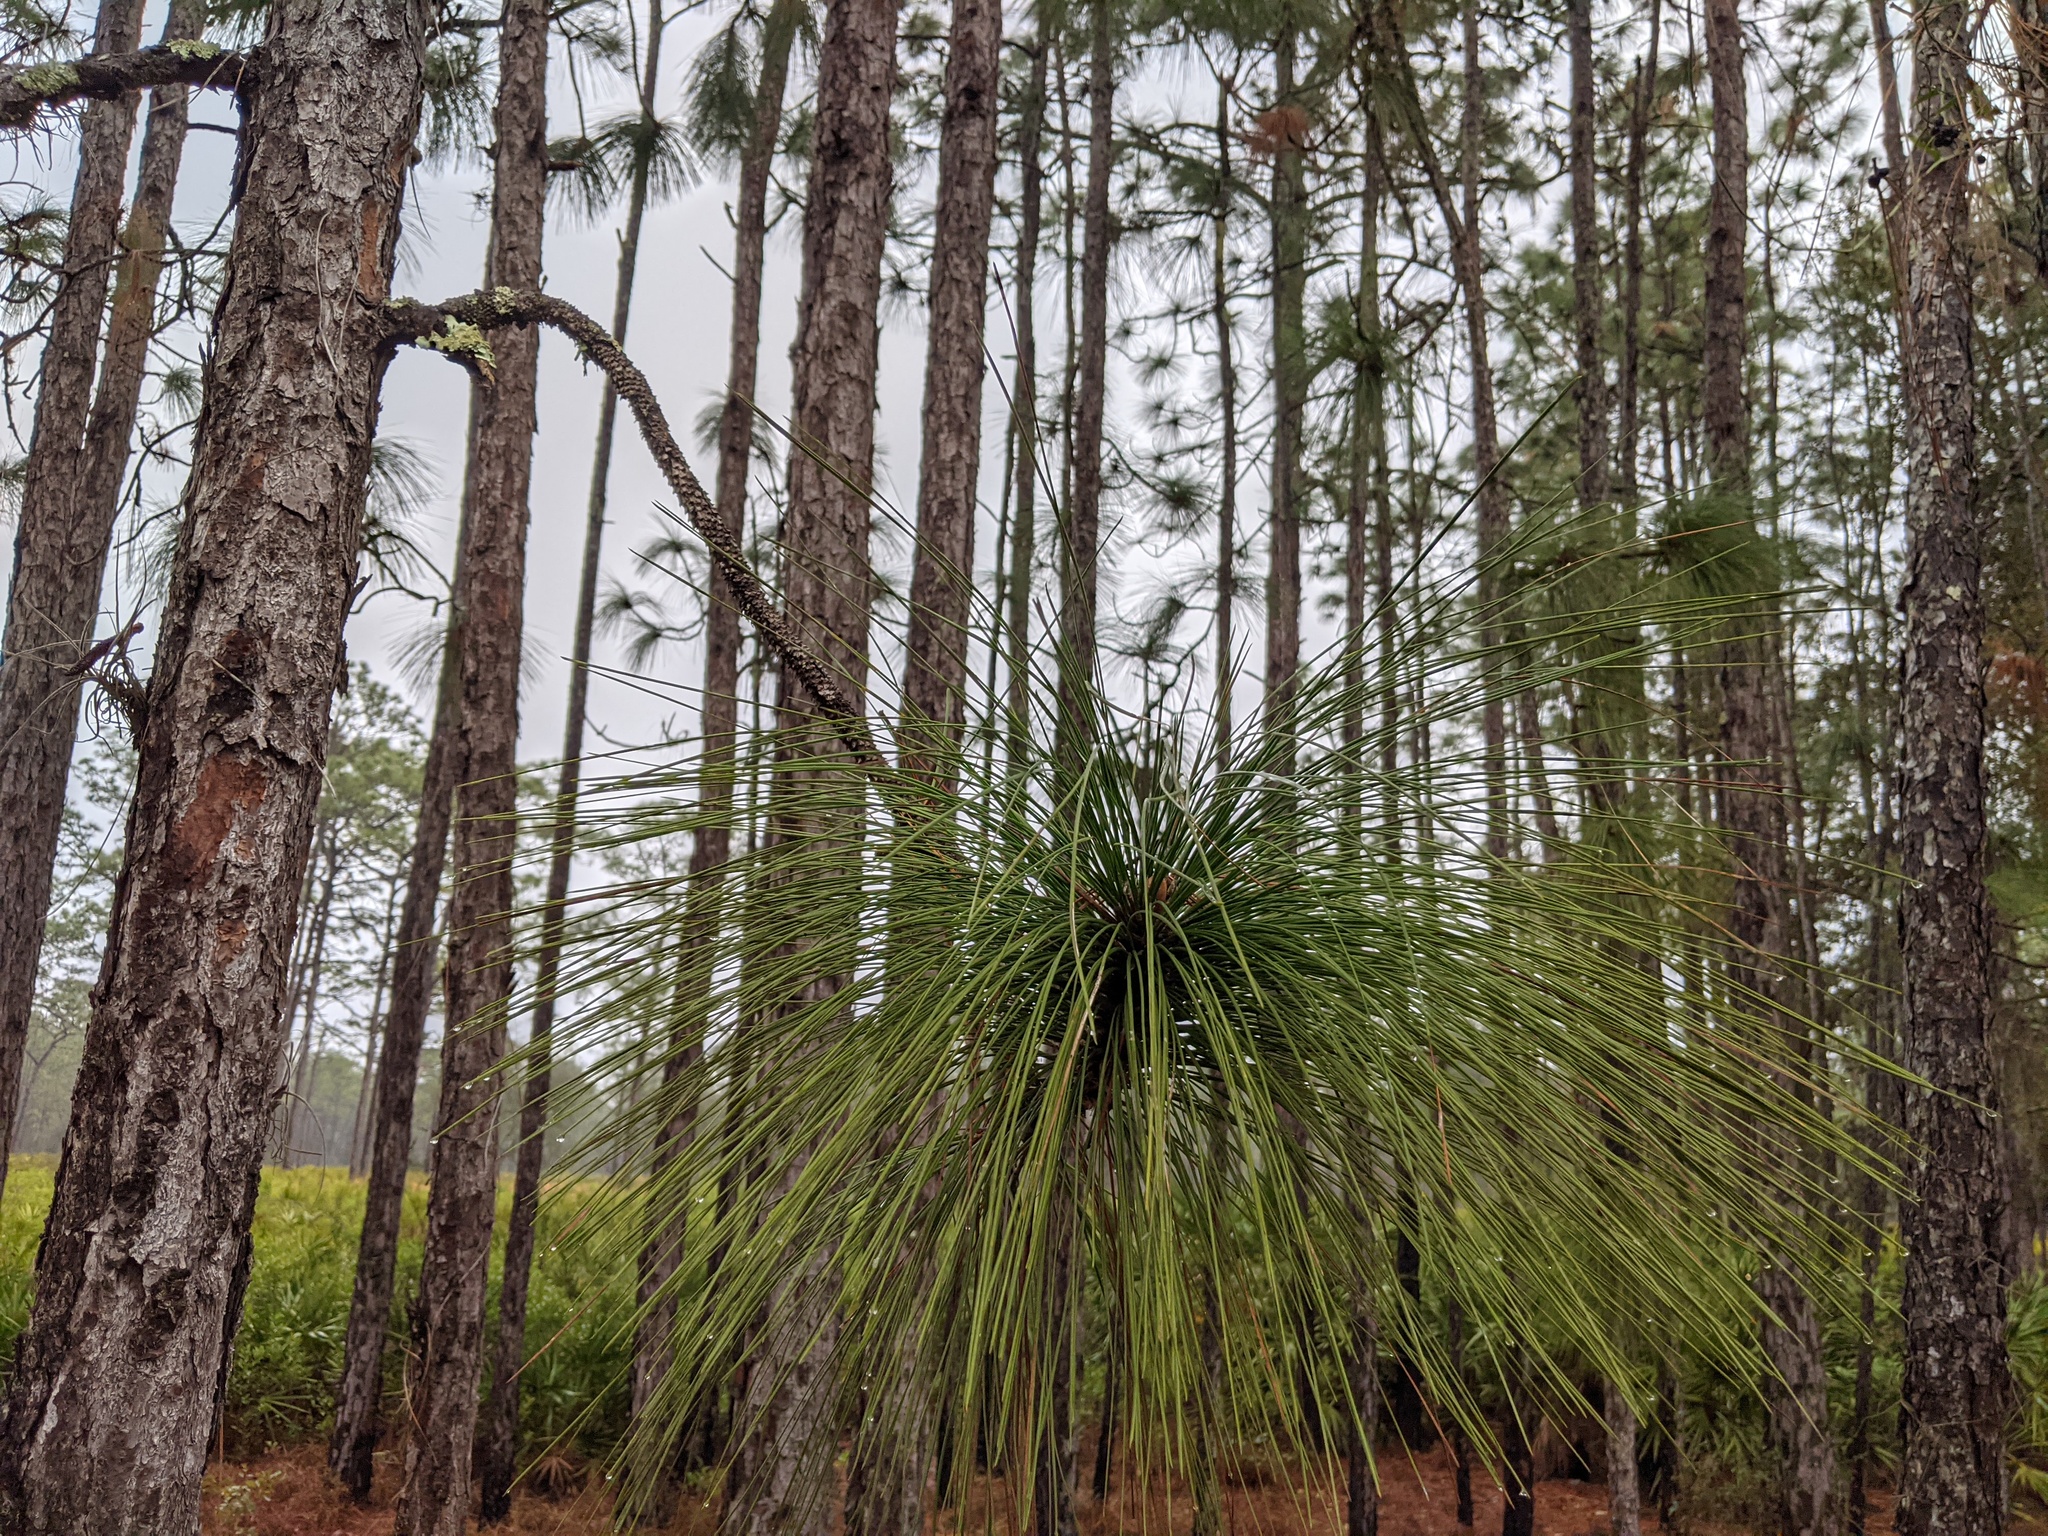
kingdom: Plantae
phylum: Tracheophyta
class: Pinopsida
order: Pinales
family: Pinaceae
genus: Pinus
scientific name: Pinus palustris
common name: Longleaf pine
